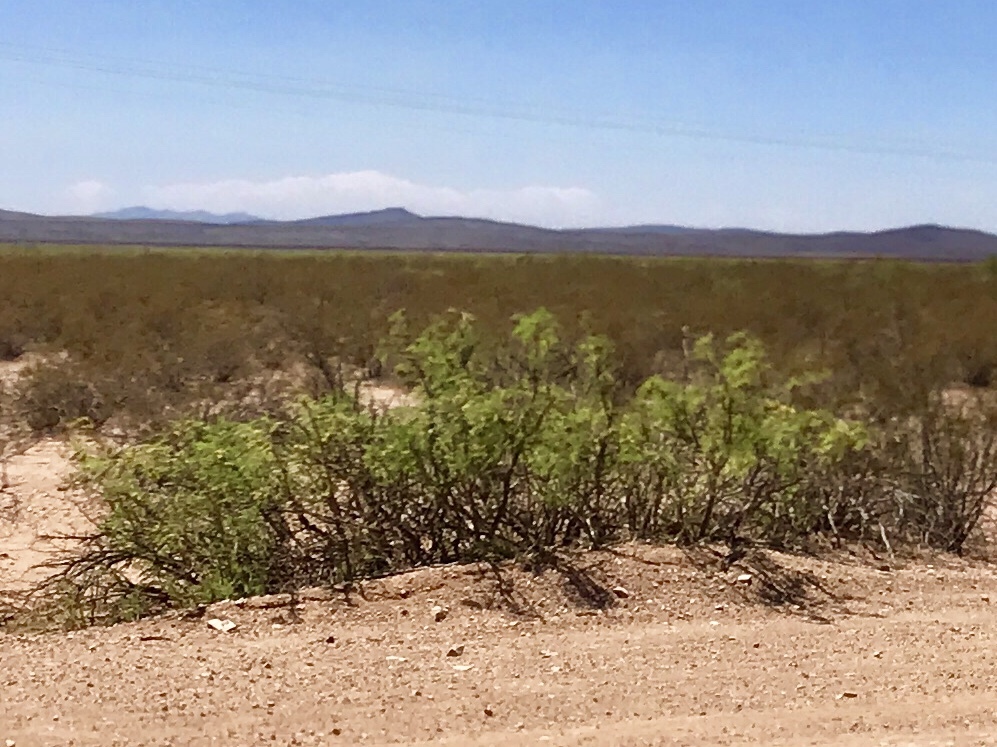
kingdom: Plantae
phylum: Tracheophyta
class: Magnoliopsida
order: Fabales
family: Fabaceae
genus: Prosopis
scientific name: Prosopis glandulosa
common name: Honey mesquite
